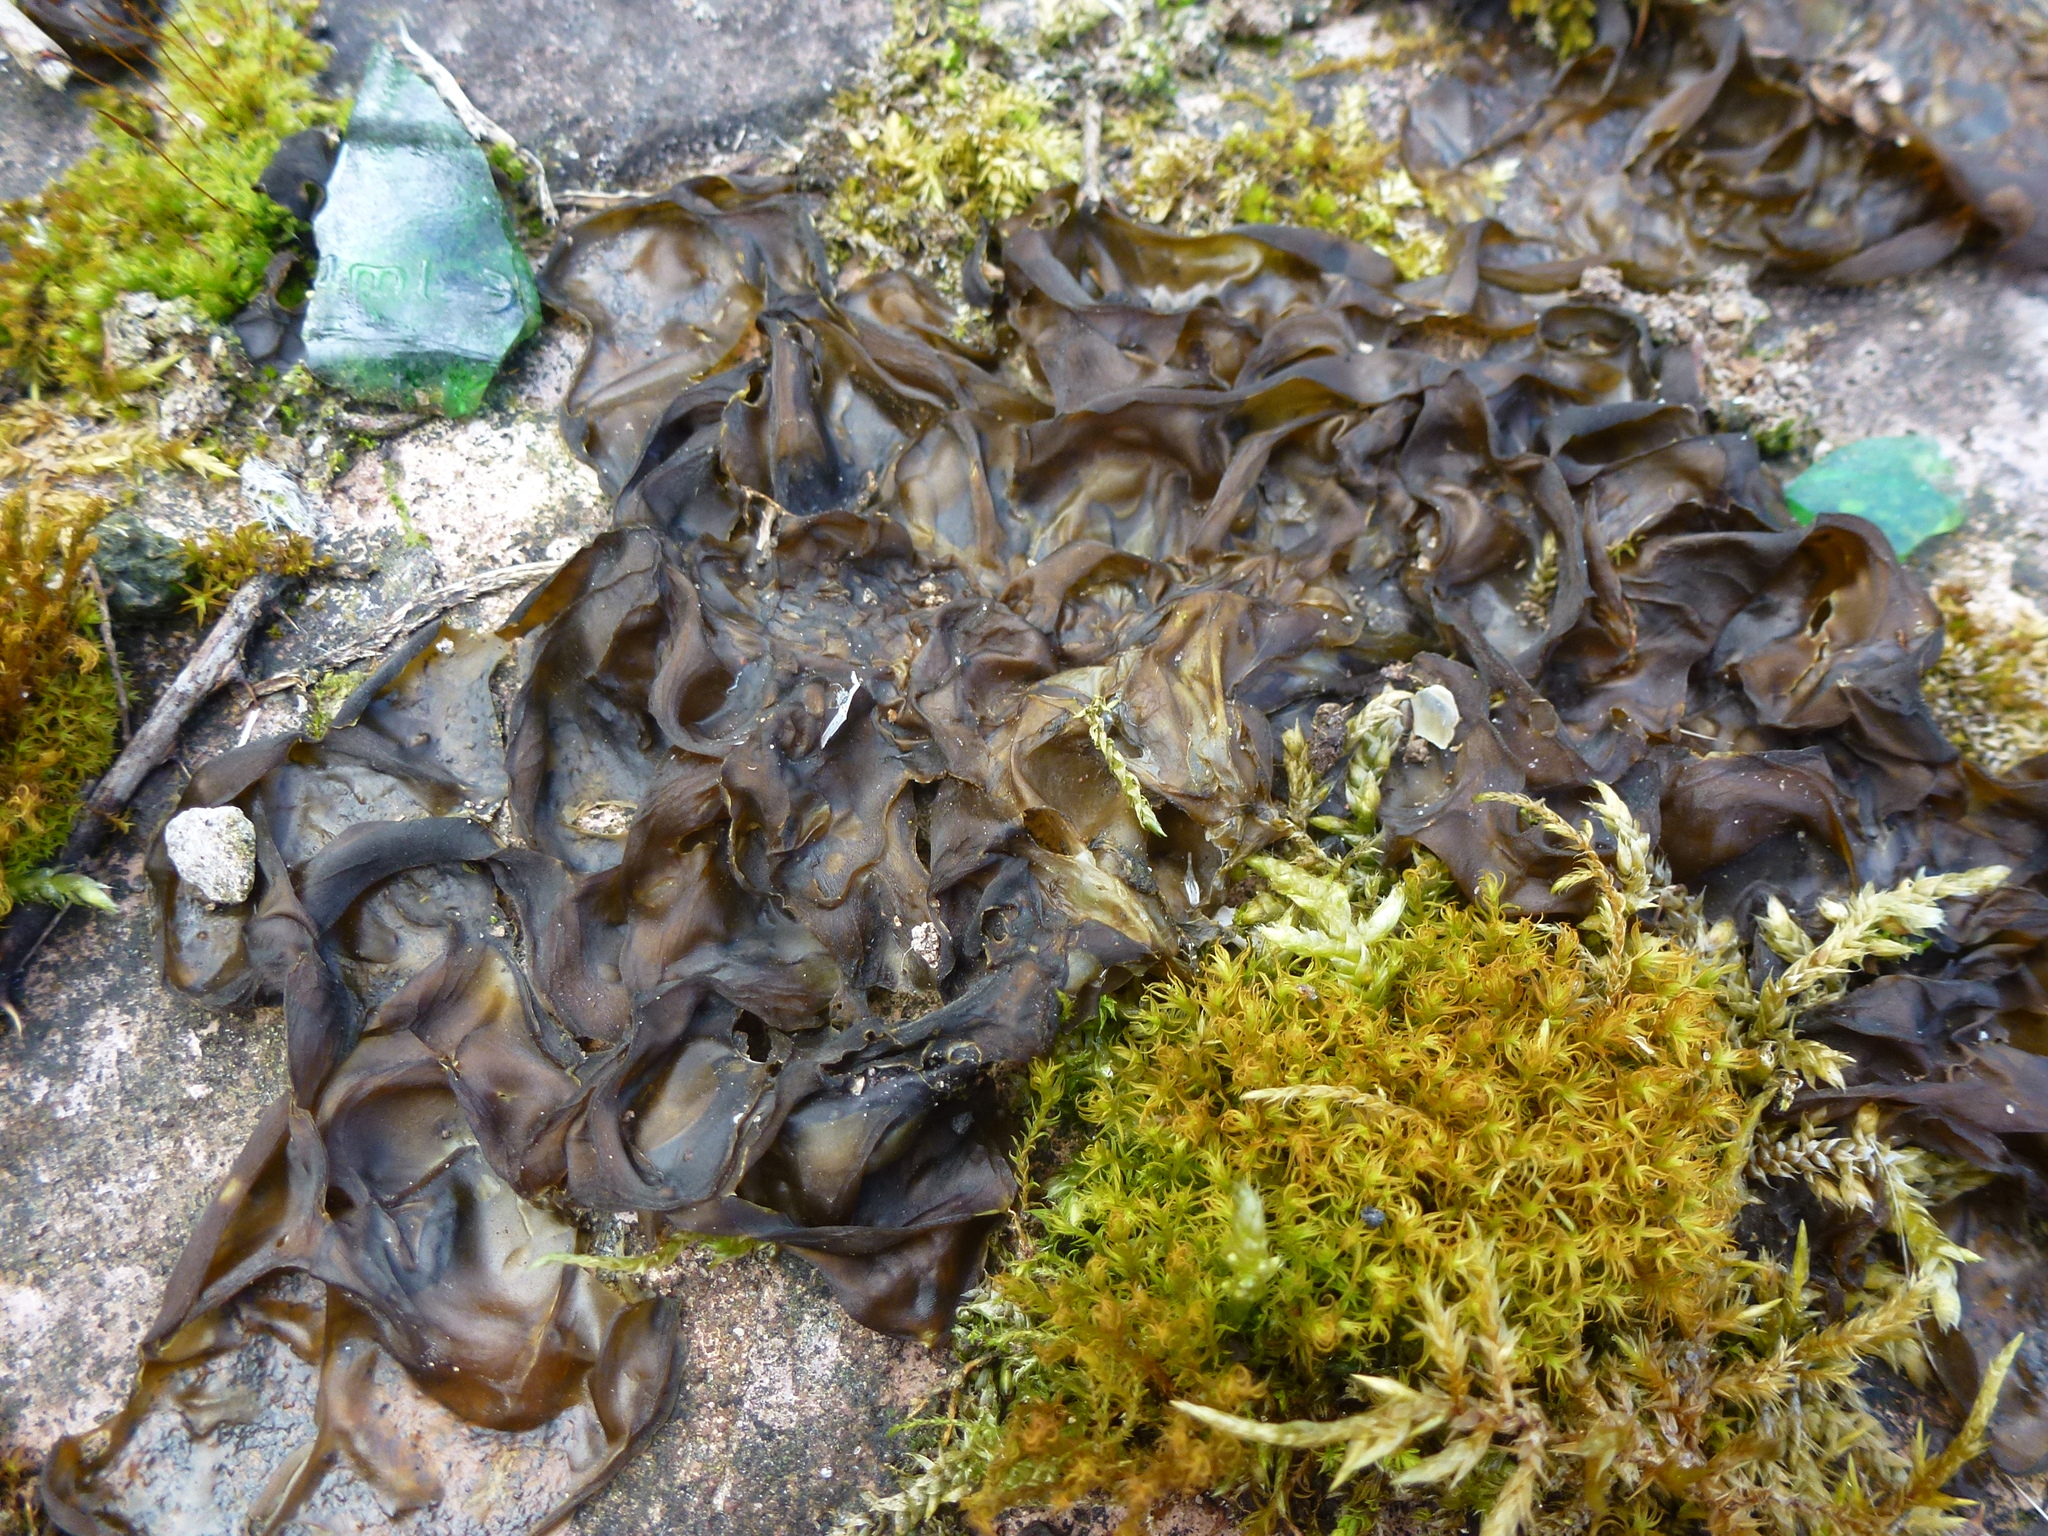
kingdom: Bacteria
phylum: Cyanobacteria
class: Cyanobacteriia
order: Cyanobacteriales
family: Nostocaceae
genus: Nostoc
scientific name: Nostoc commune
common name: Star jelly
